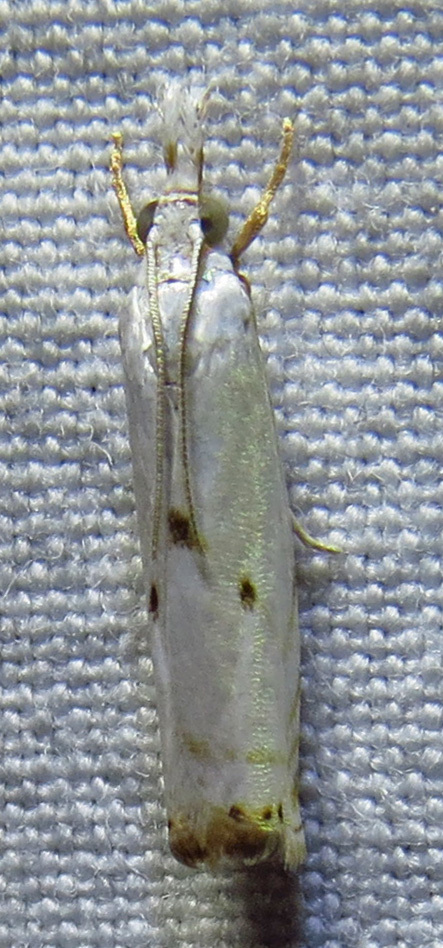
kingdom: Animalia
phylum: Arthropoda
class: Insecta
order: Lepidoptera
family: Crambidae
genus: Microcrambus
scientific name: Microcrambus biguttellus
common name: Gold-stripe grass-veneer moth
